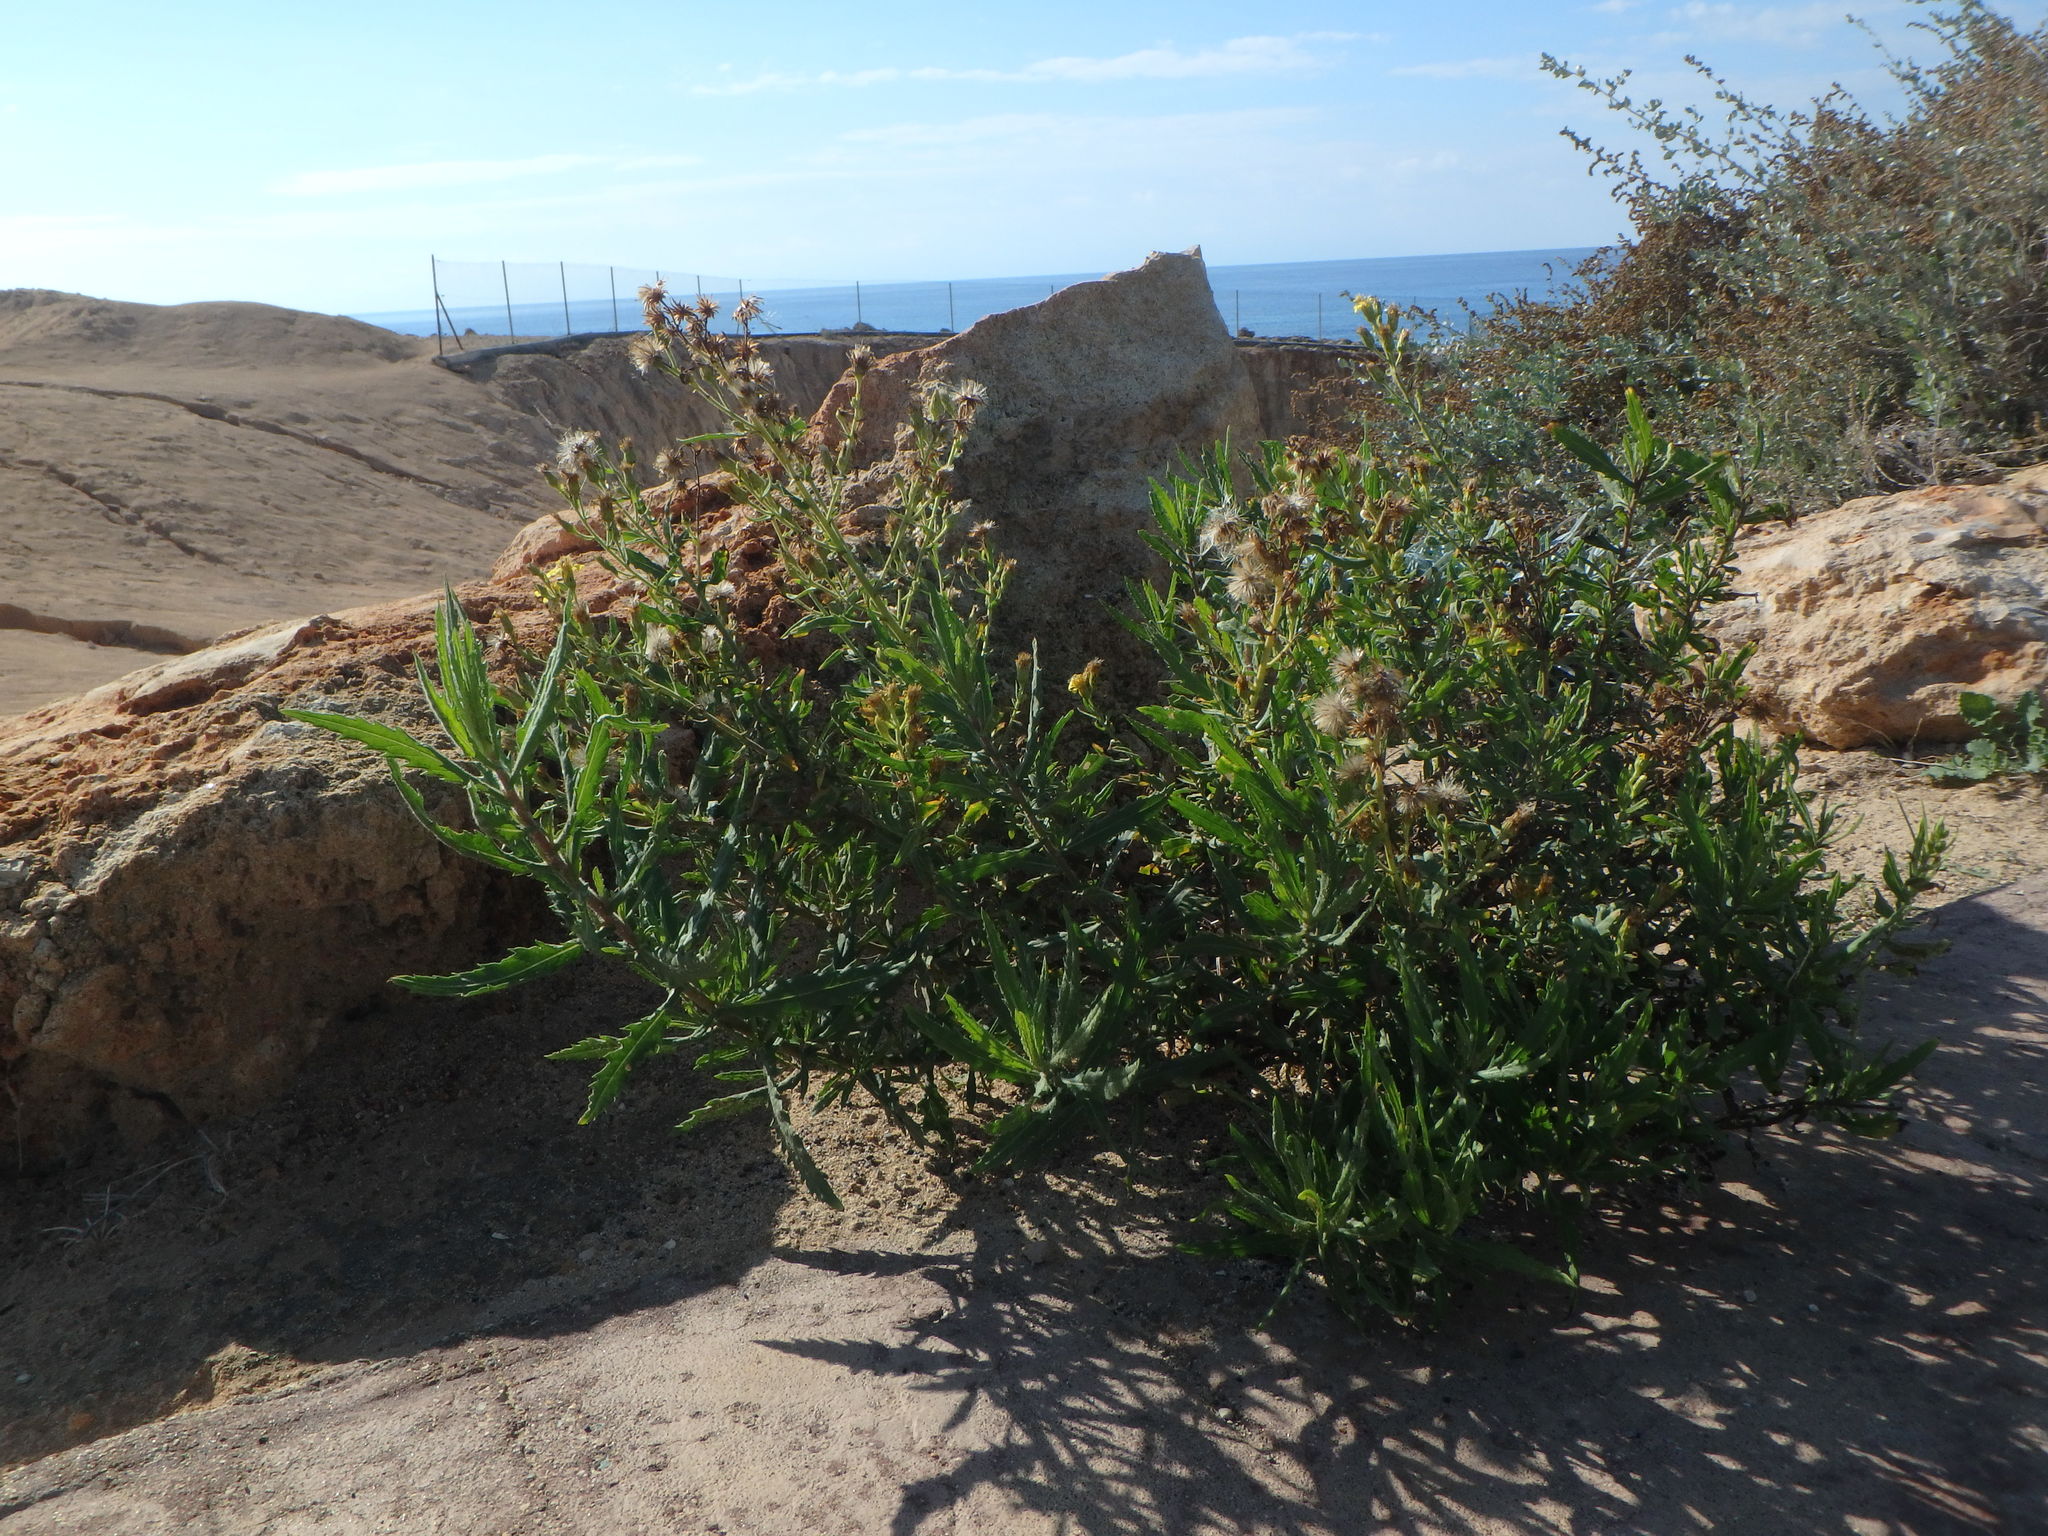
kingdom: Plantae
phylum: Tracheophyta
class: Magnoliopsida
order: Asterales
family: Asteraceae
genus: Dittrichia
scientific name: Dittrichia viscosa
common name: Woody fleabane
